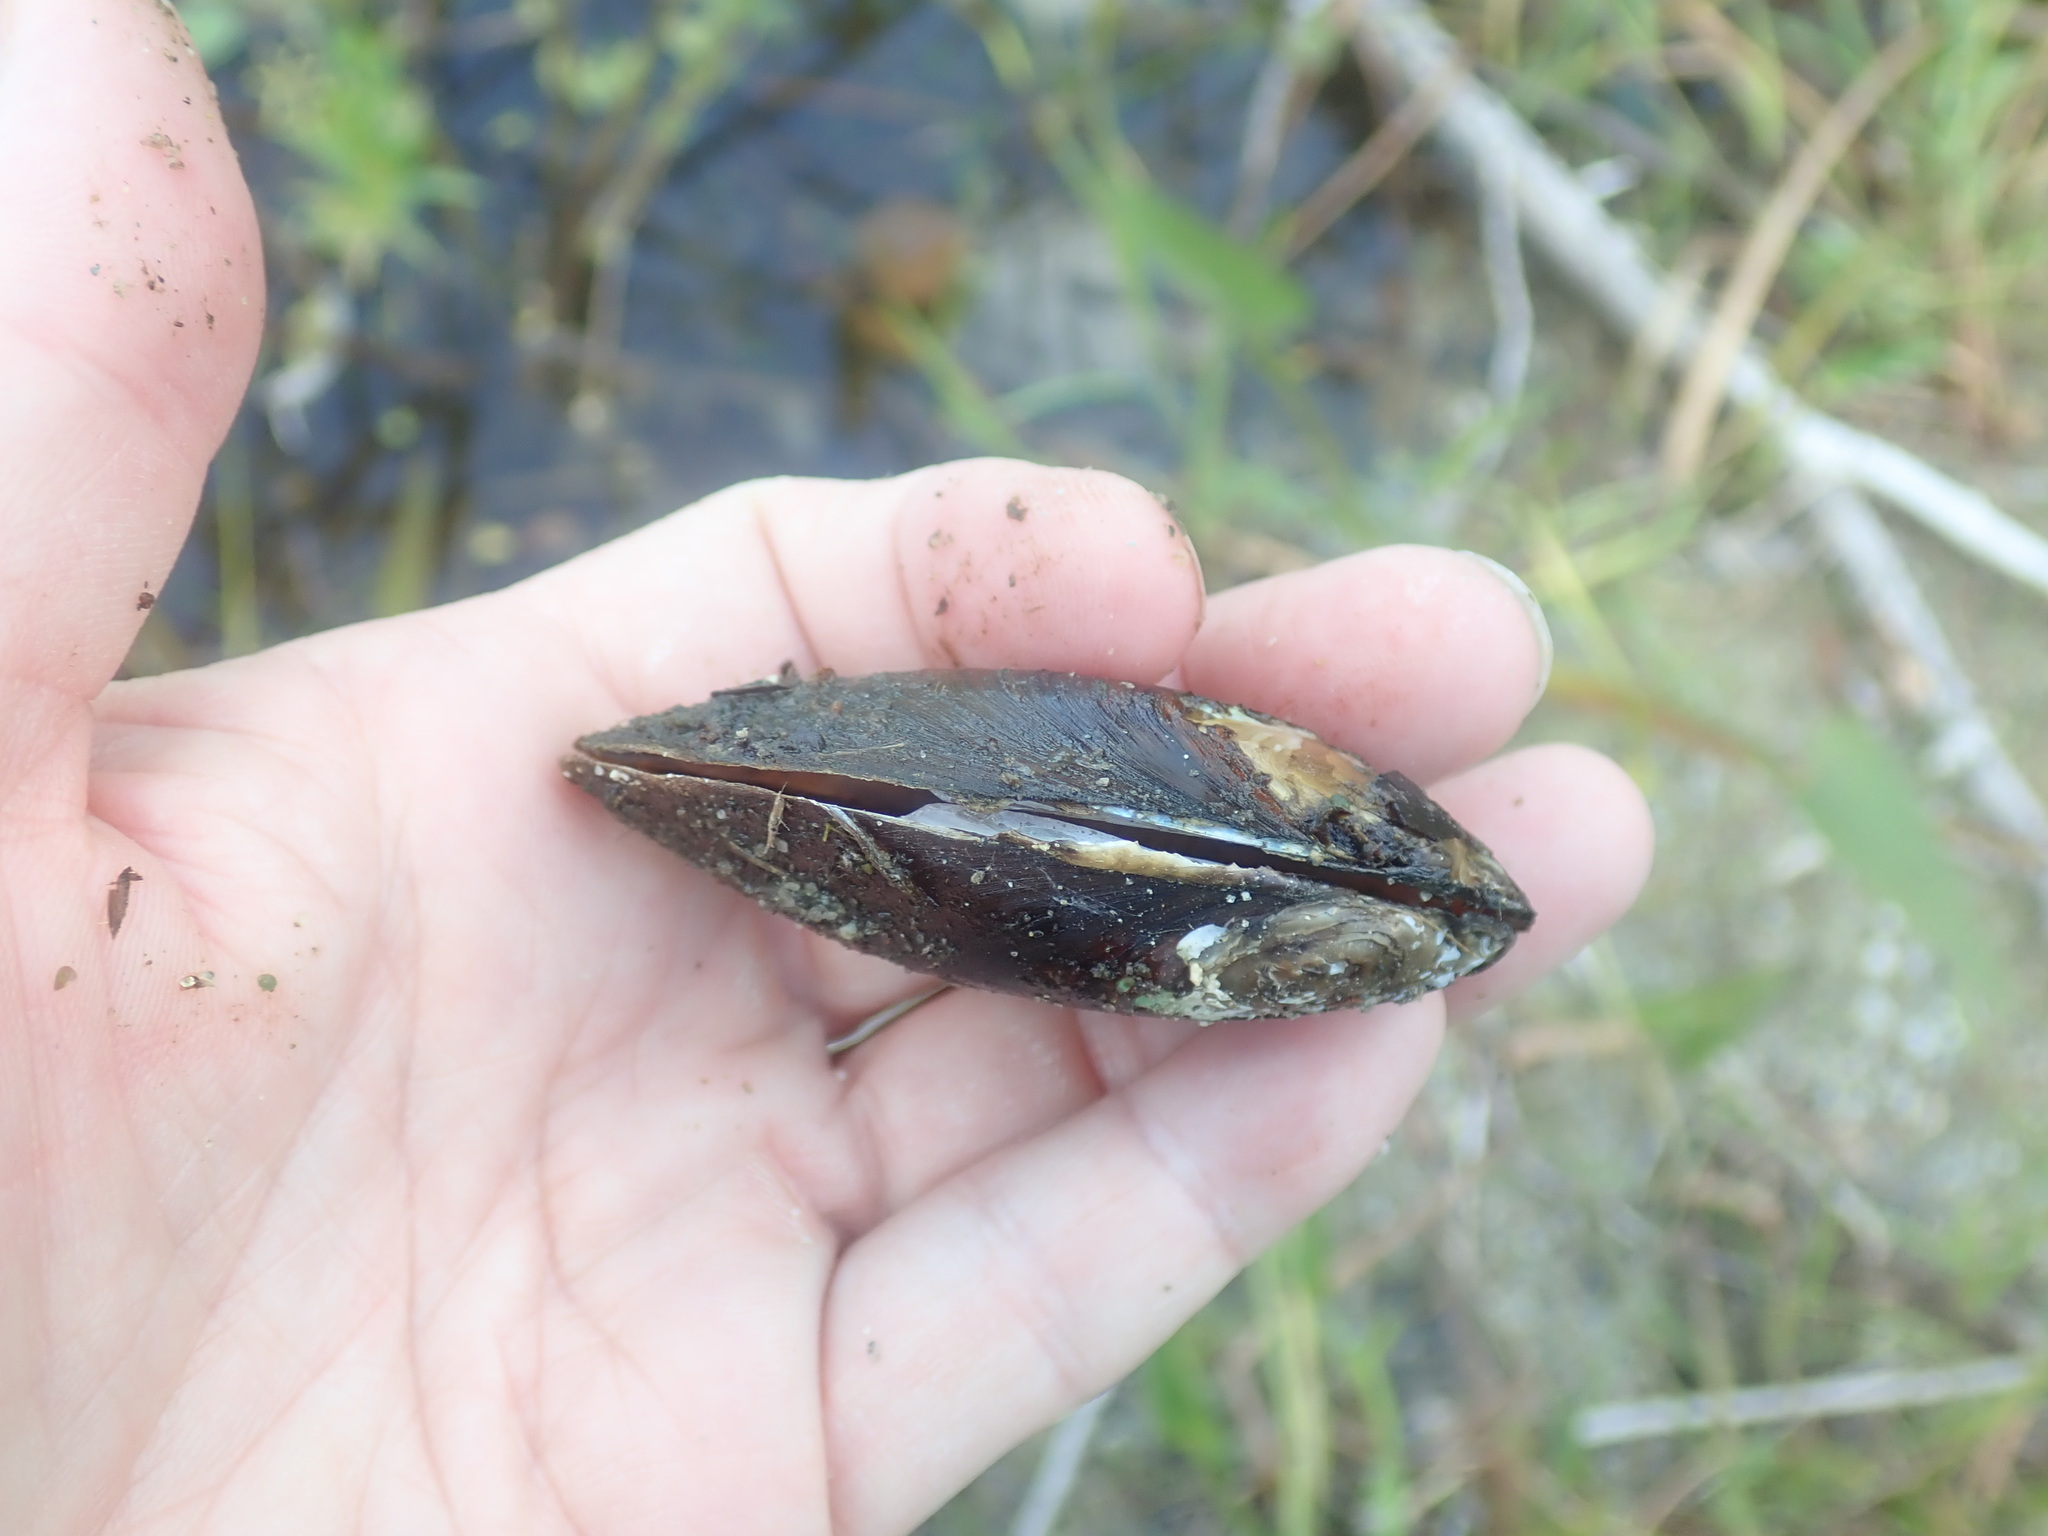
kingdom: Animalia
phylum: Mollusca
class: Bivalvia
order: Unionida
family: Unionidae
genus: Elliptio
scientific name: Elliptio complanata
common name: Eastern elliptio
